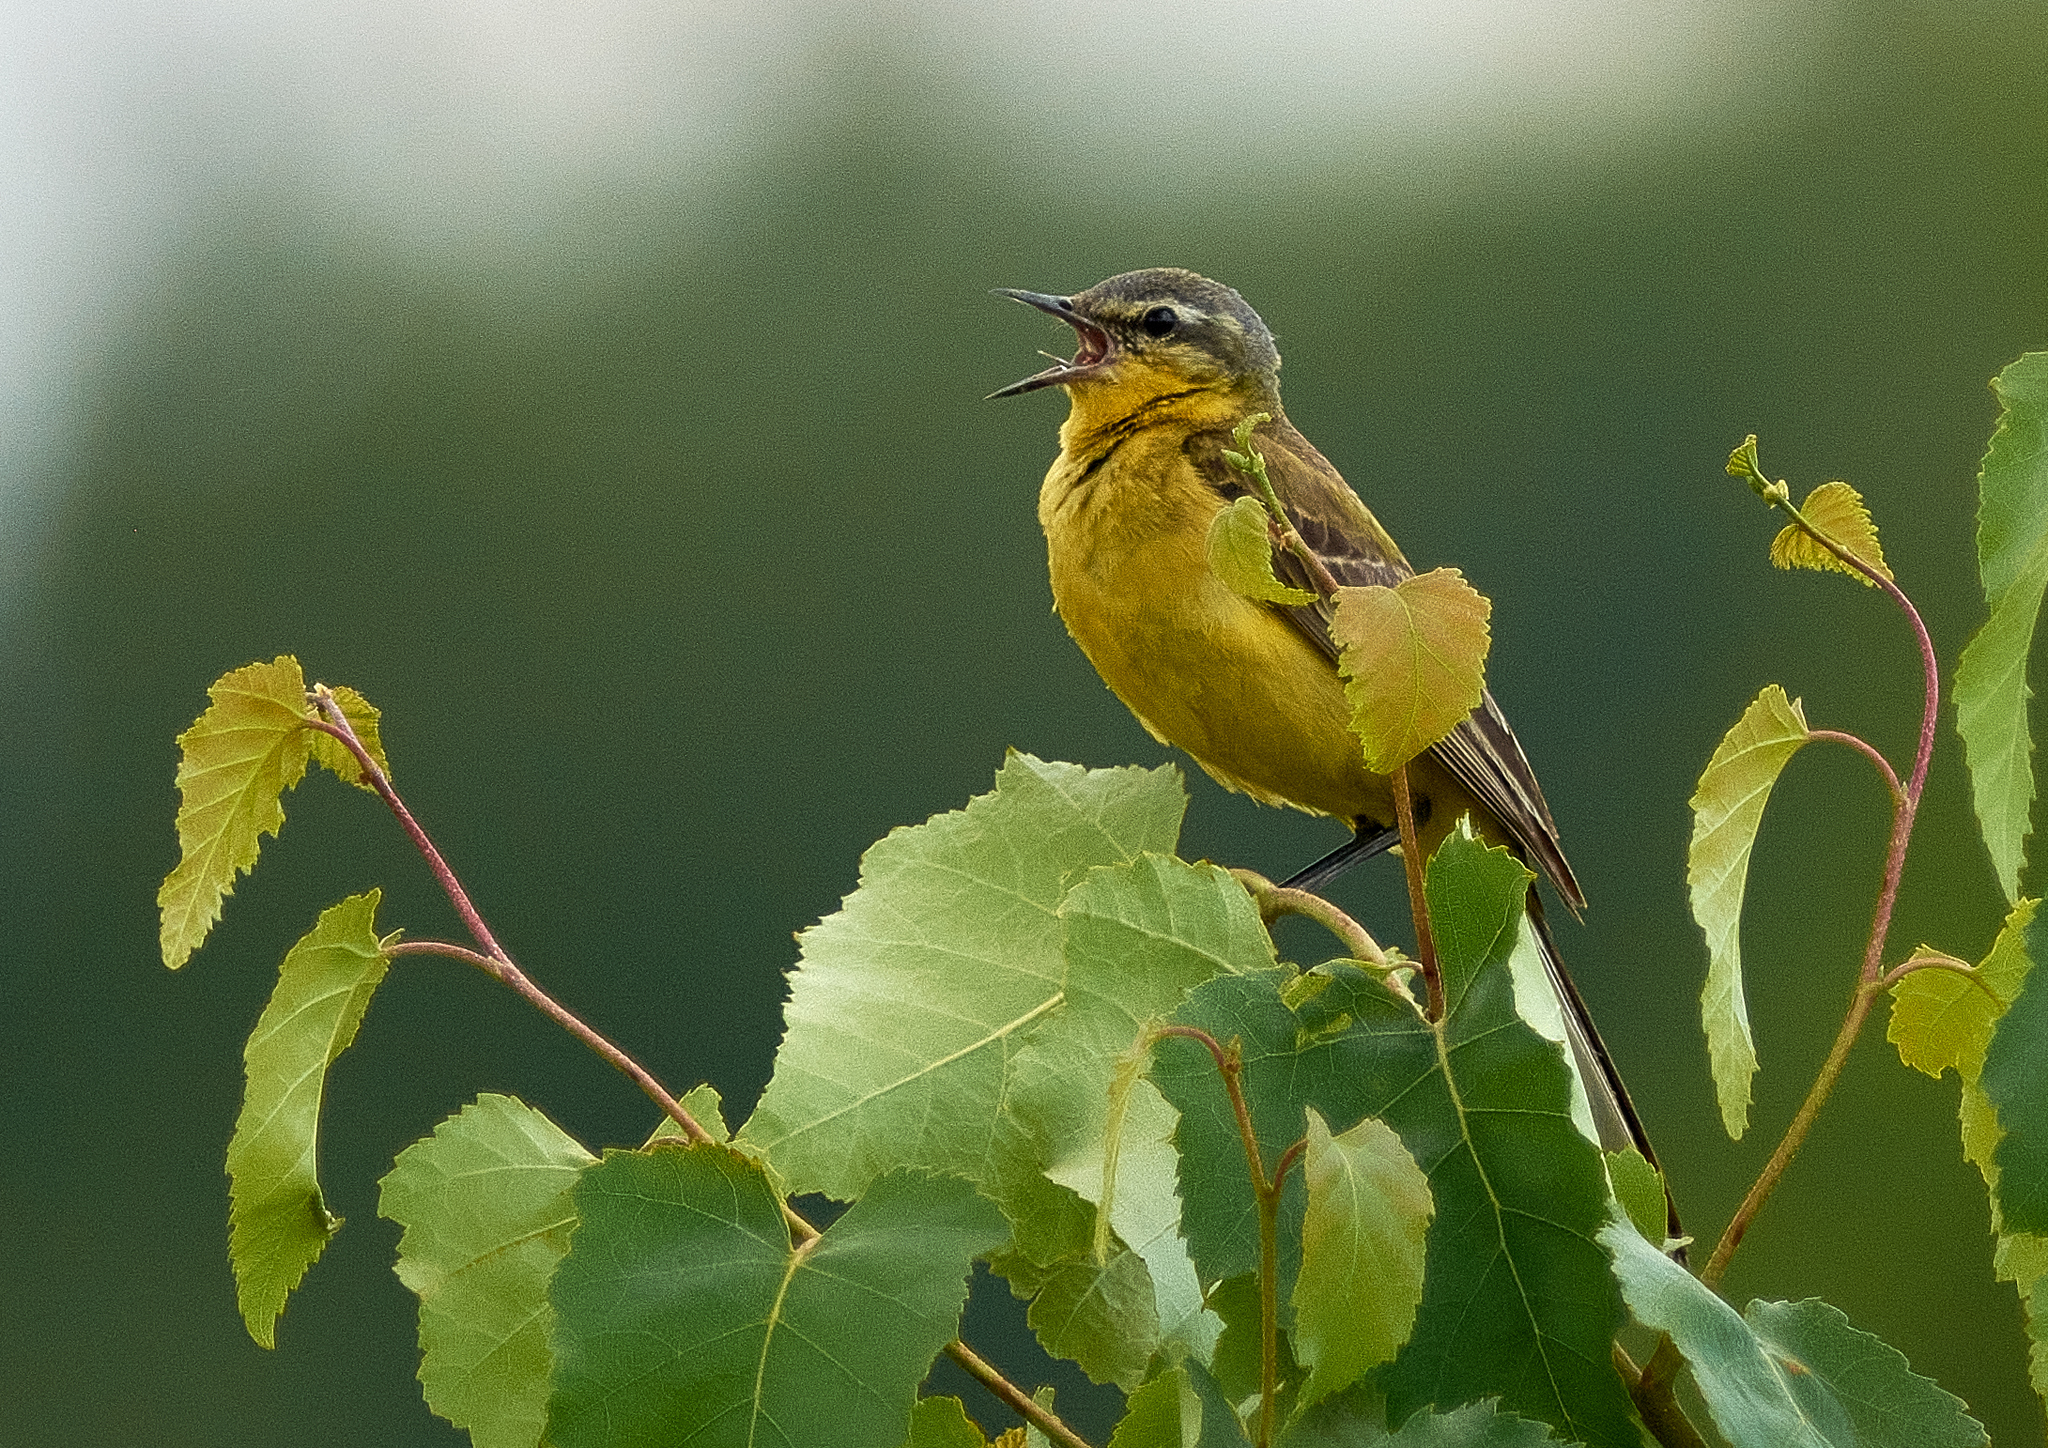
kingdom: Animalia
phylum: Chordata
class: Aves
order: Passeriformes
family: Motacillidae
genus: Motacilla
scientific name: Motacilla flava
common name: Western yellow wagtail
